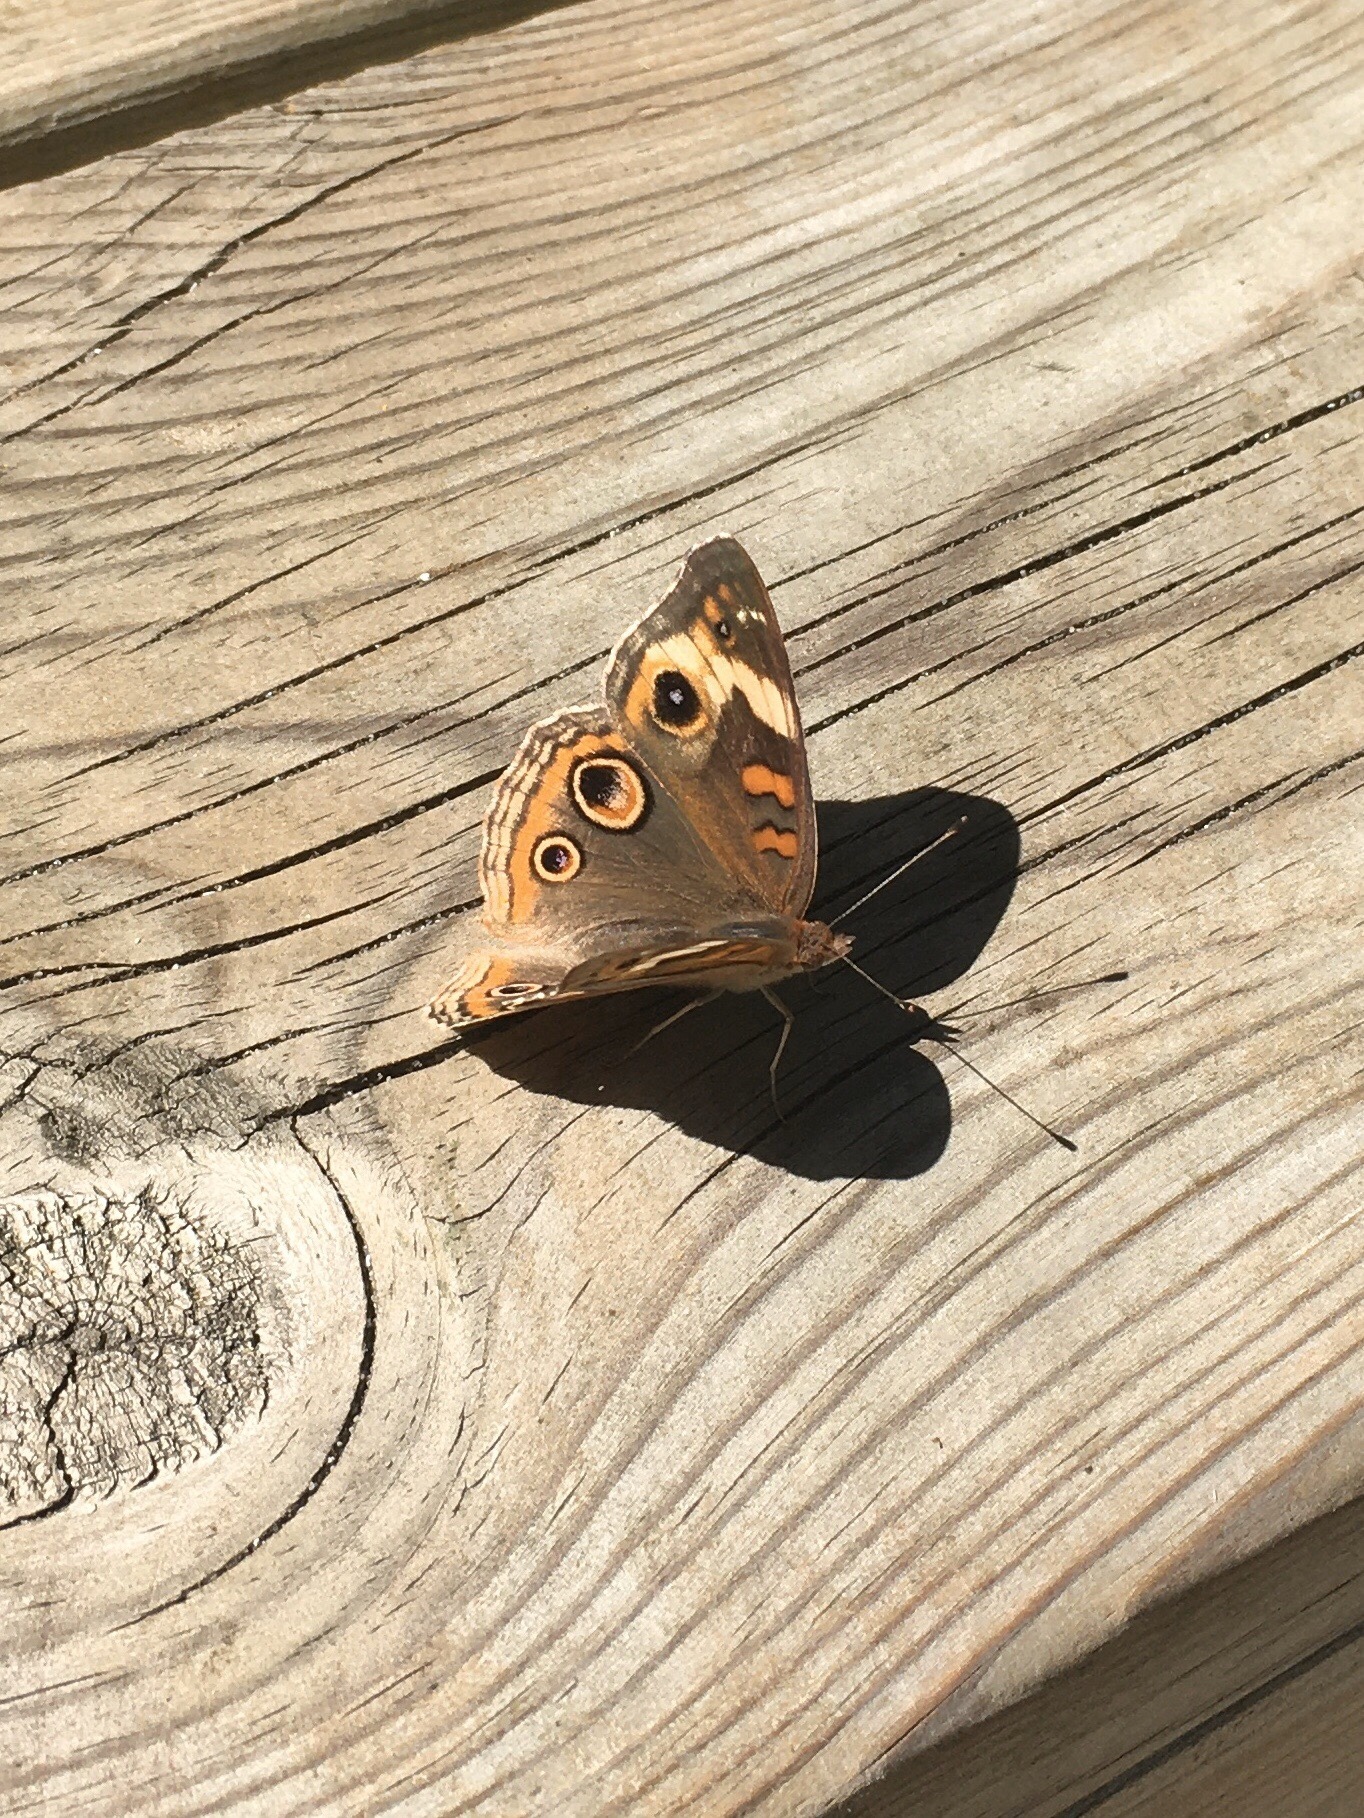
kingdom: Animalia
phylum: Arthropoda
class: Insecta
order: Lepidoptera
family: Nymphalidae
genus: Junonia
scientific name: Junonia coenia
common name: Common buckeye
